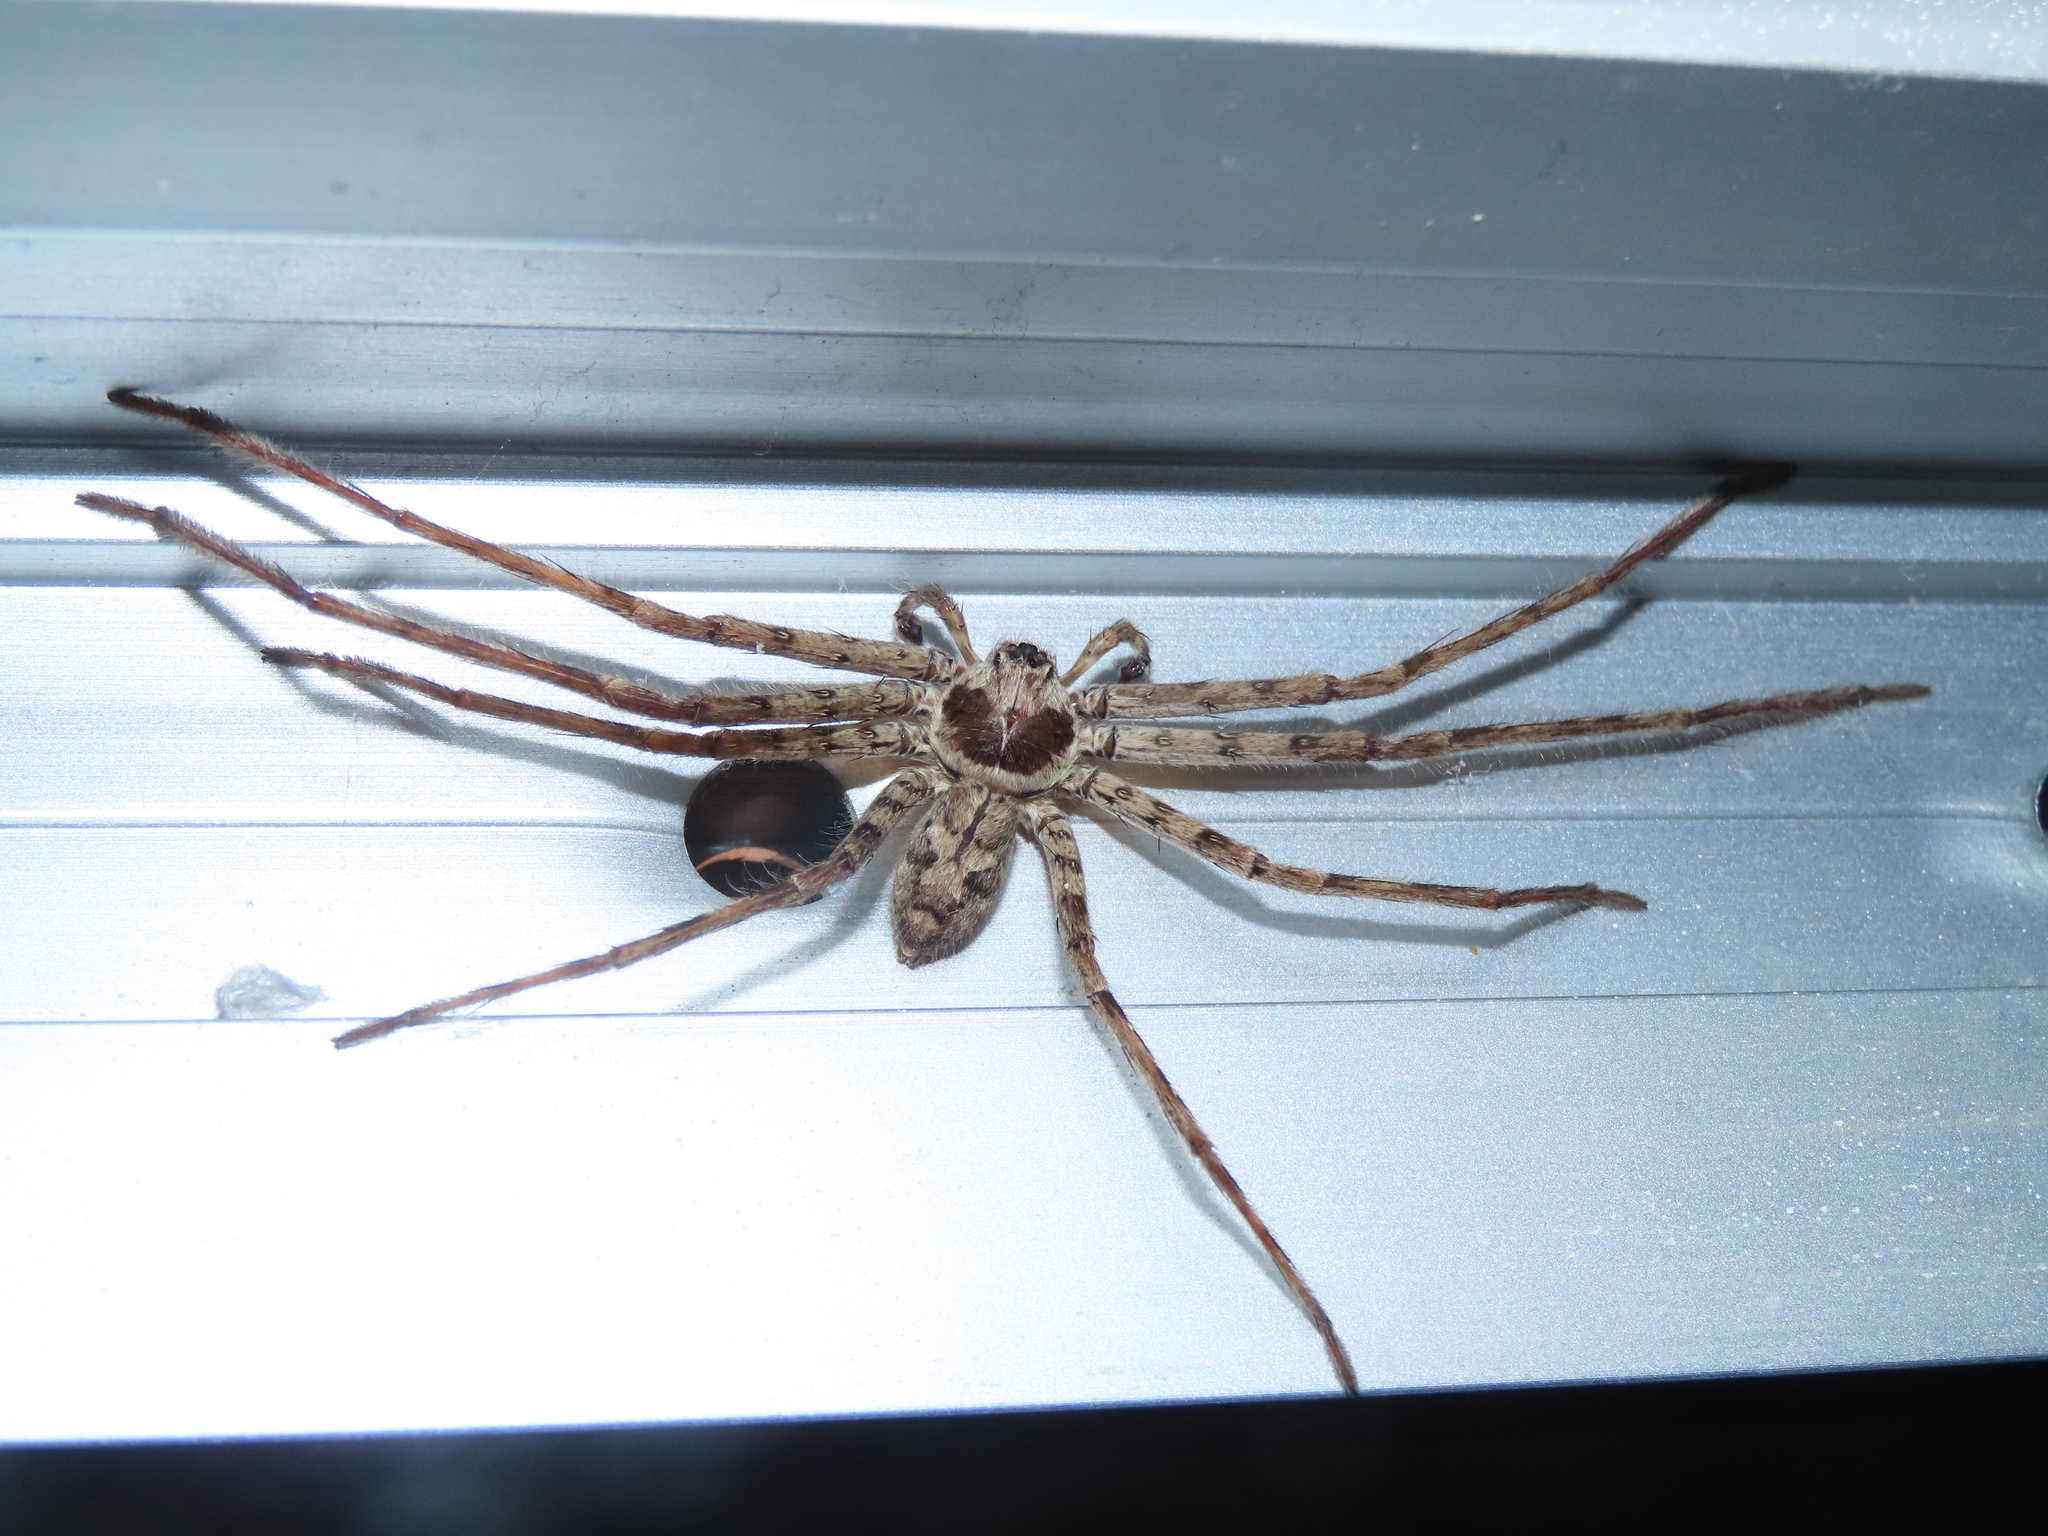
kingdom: Animalia
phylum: Arthropoda
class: Arachnida
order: Araneae
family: Sparassidae
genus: Heteropoda
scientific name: Heteropoda venatoria
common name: Huntsman spider
